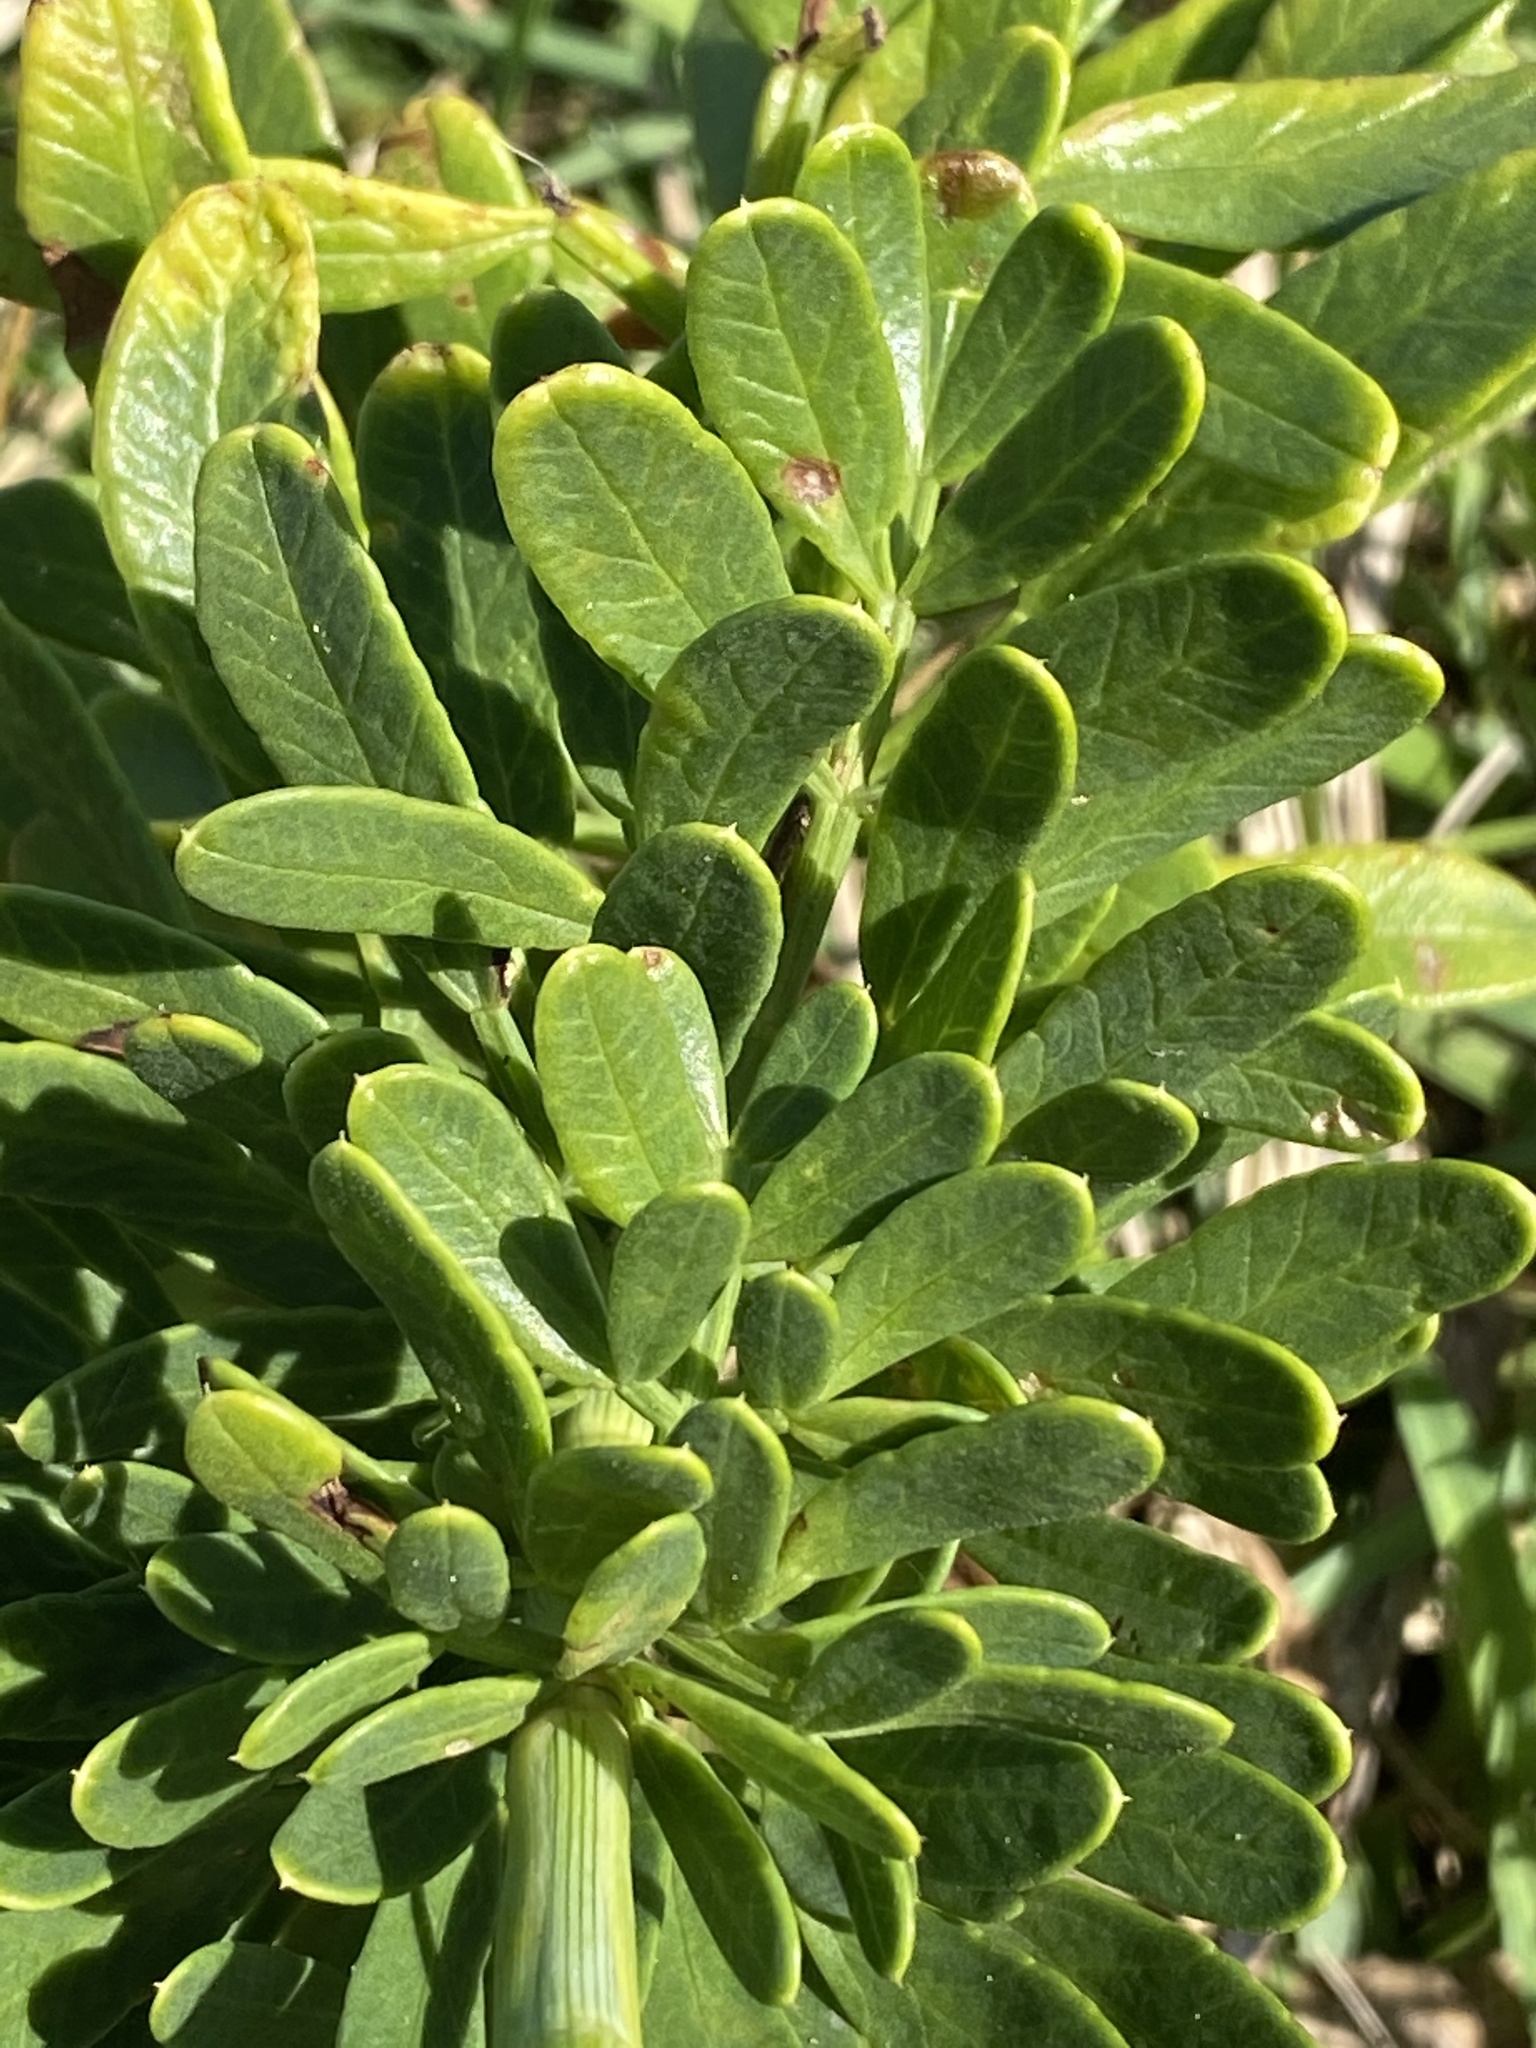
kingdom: Plantae
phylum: Tracheophyta
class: Magnoliopsida
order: Apiales
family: Apiaceae
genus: Notobubon
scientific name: Notobubon laevigatum
